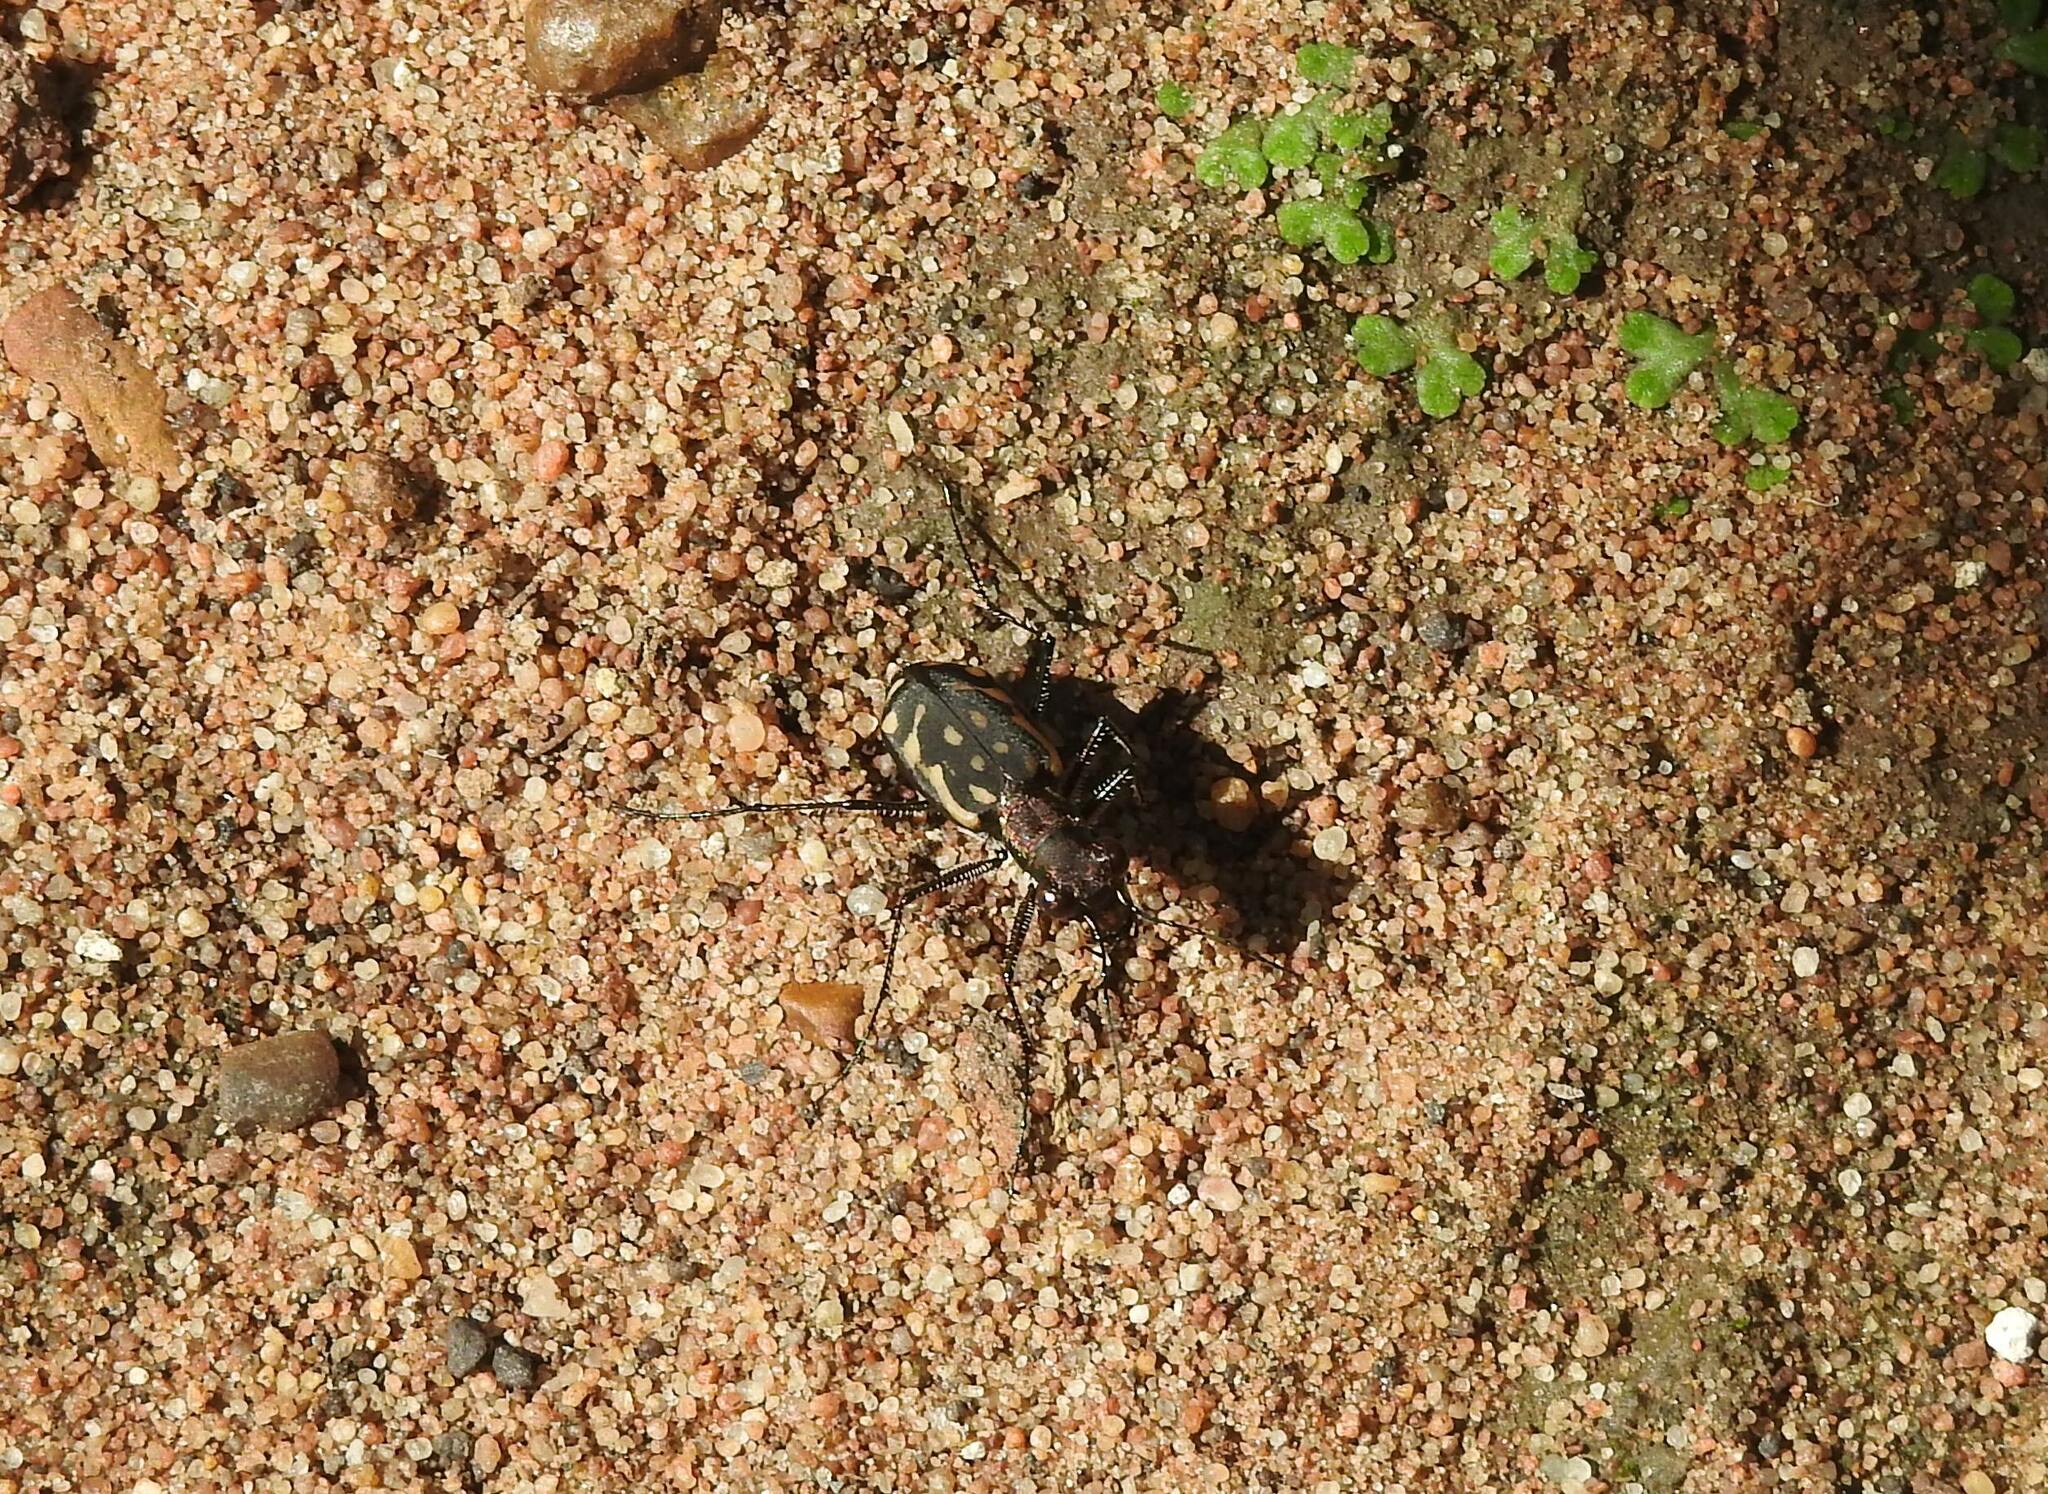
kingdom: Animalia
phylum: Arthropoda
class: Insecta
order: Coleoptera
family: Carabidae
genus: Lophyra
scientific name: Lophyra striolata
